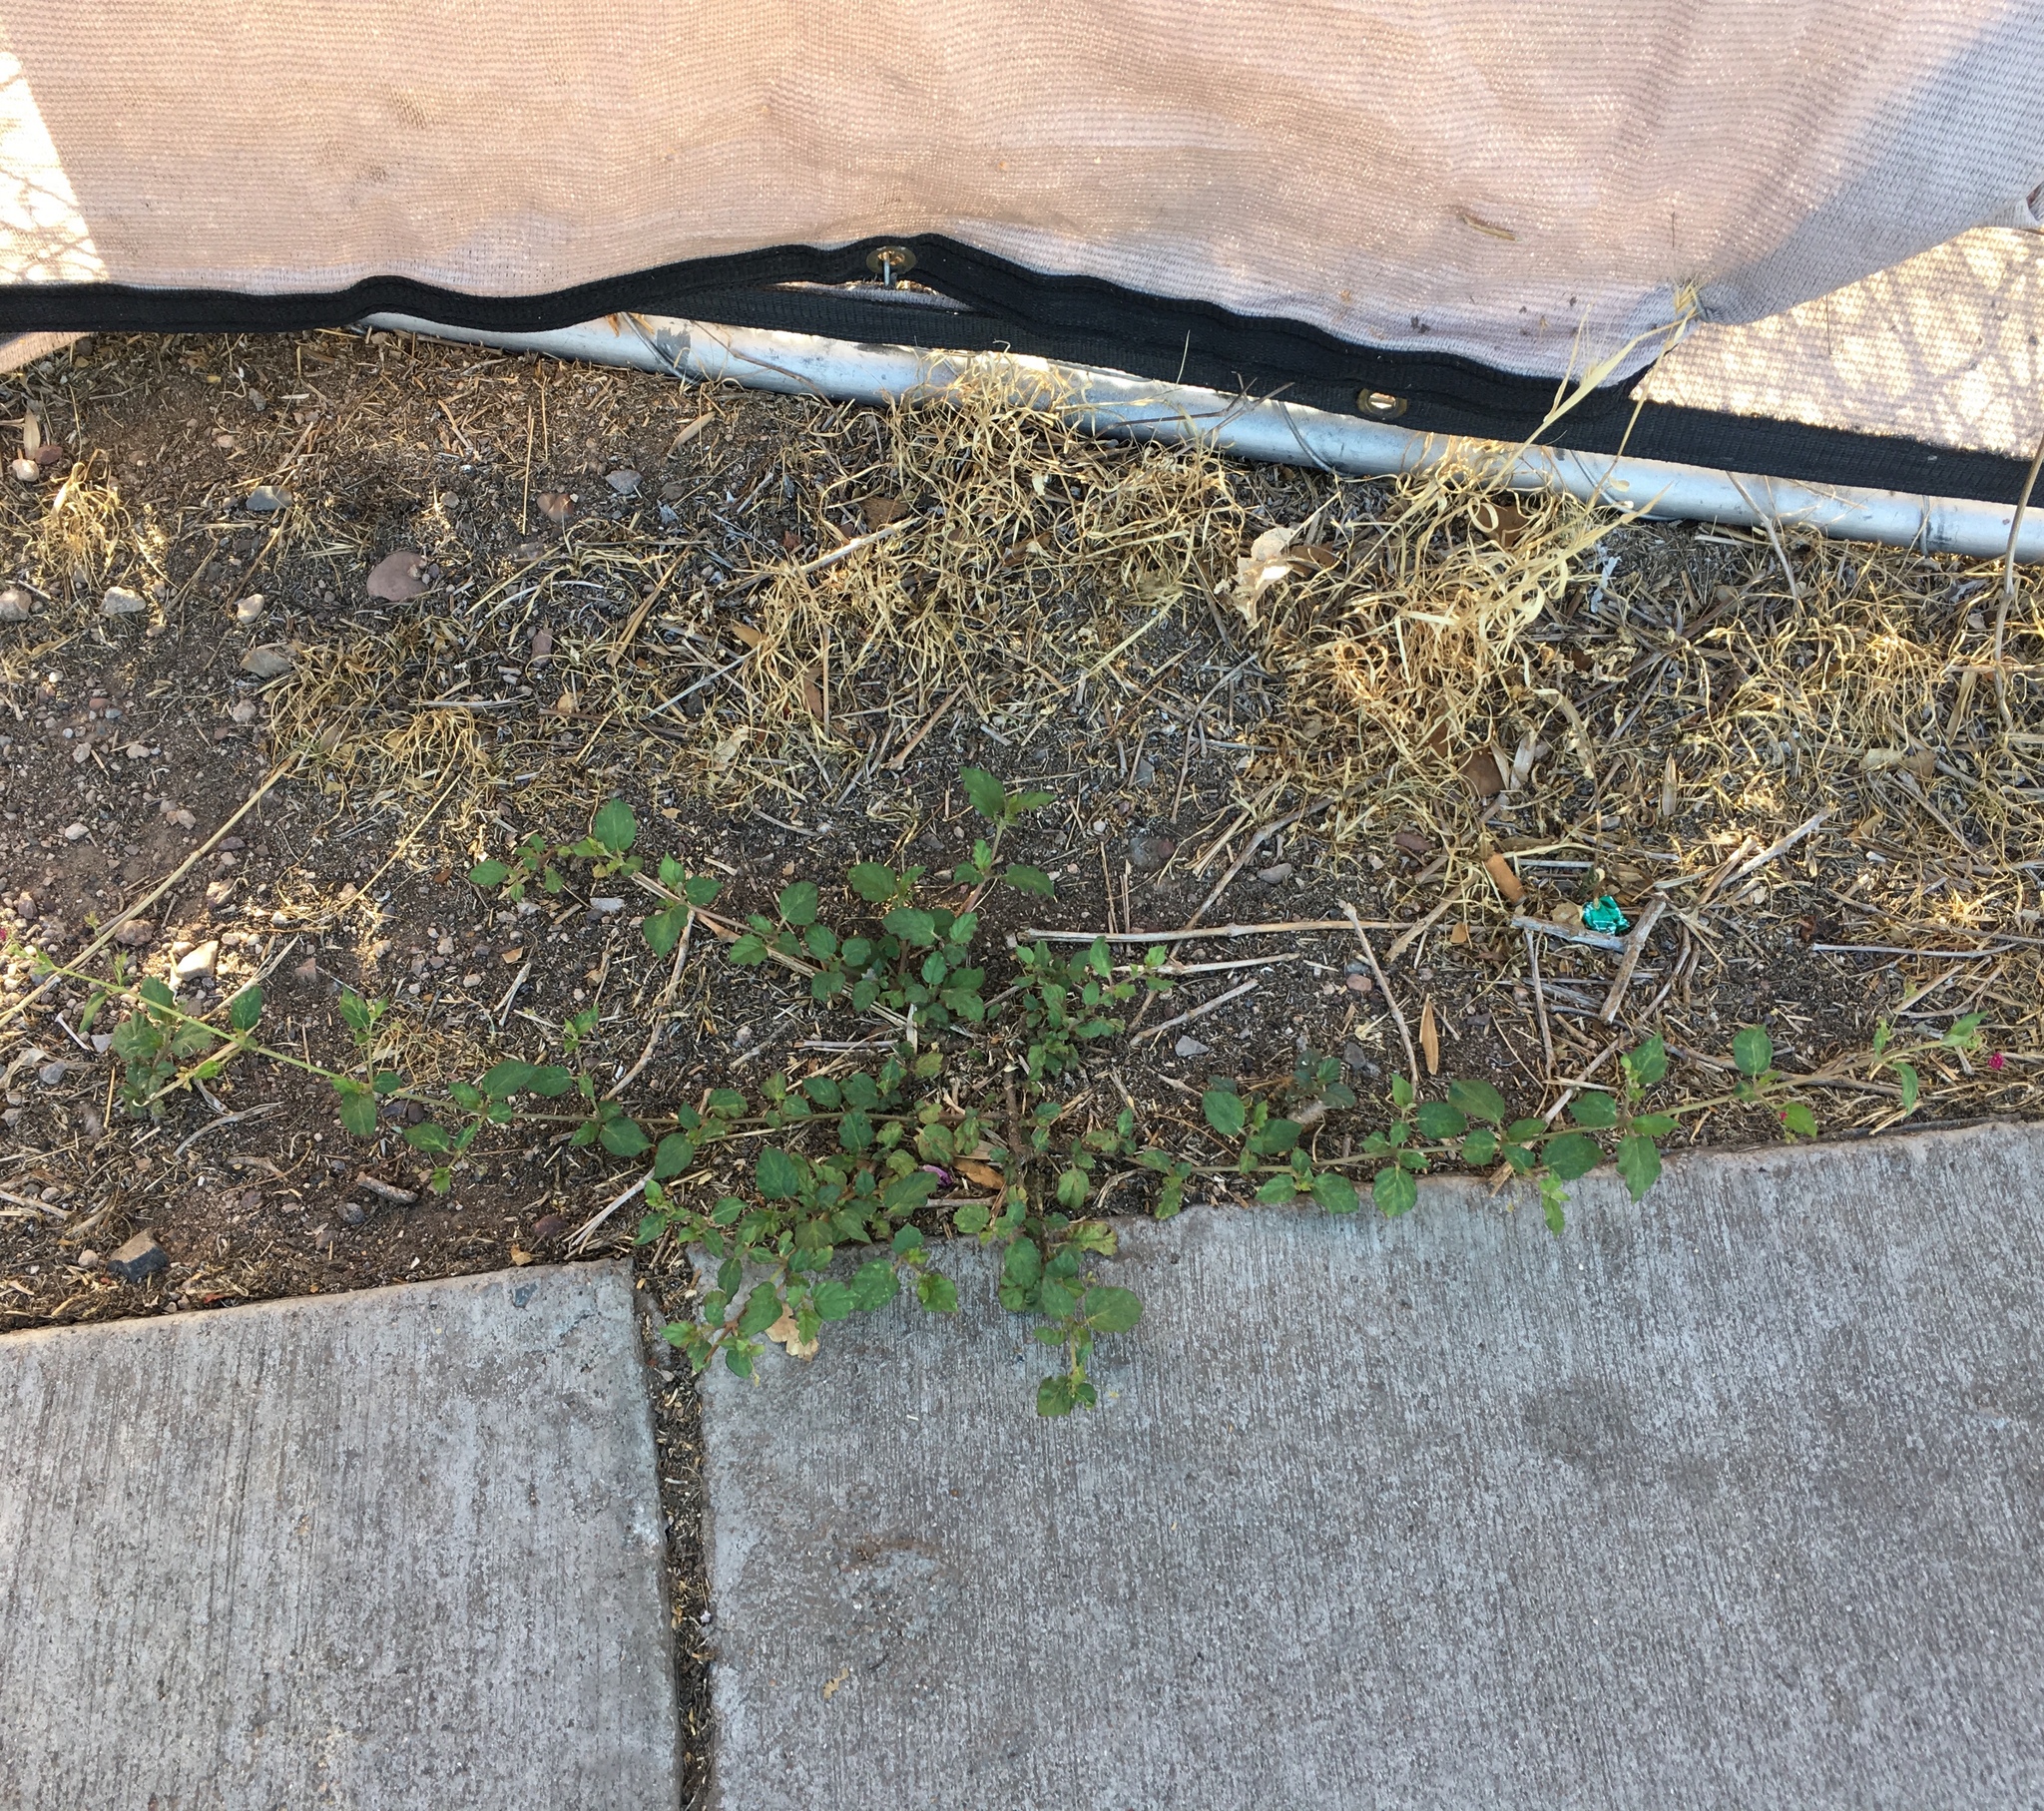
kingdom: Plantae
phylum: Tracheophyta
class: Magnoliopsida
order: Caryophyllales
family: Nyctaginaceae
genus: Boerhavia
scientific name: Boerhavia coccinea
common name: Scarlet spiderling
